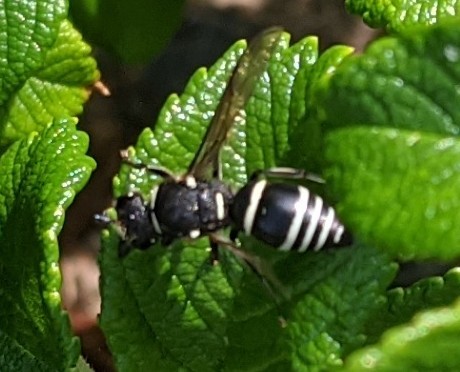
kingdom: Animalia
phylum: Arthropoda
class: Insecta
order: Hymenoptera
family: Vespidae
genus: Ancistrocerus
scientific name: Ancistrocerus albophaleratus
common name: White-banded potter wasp
